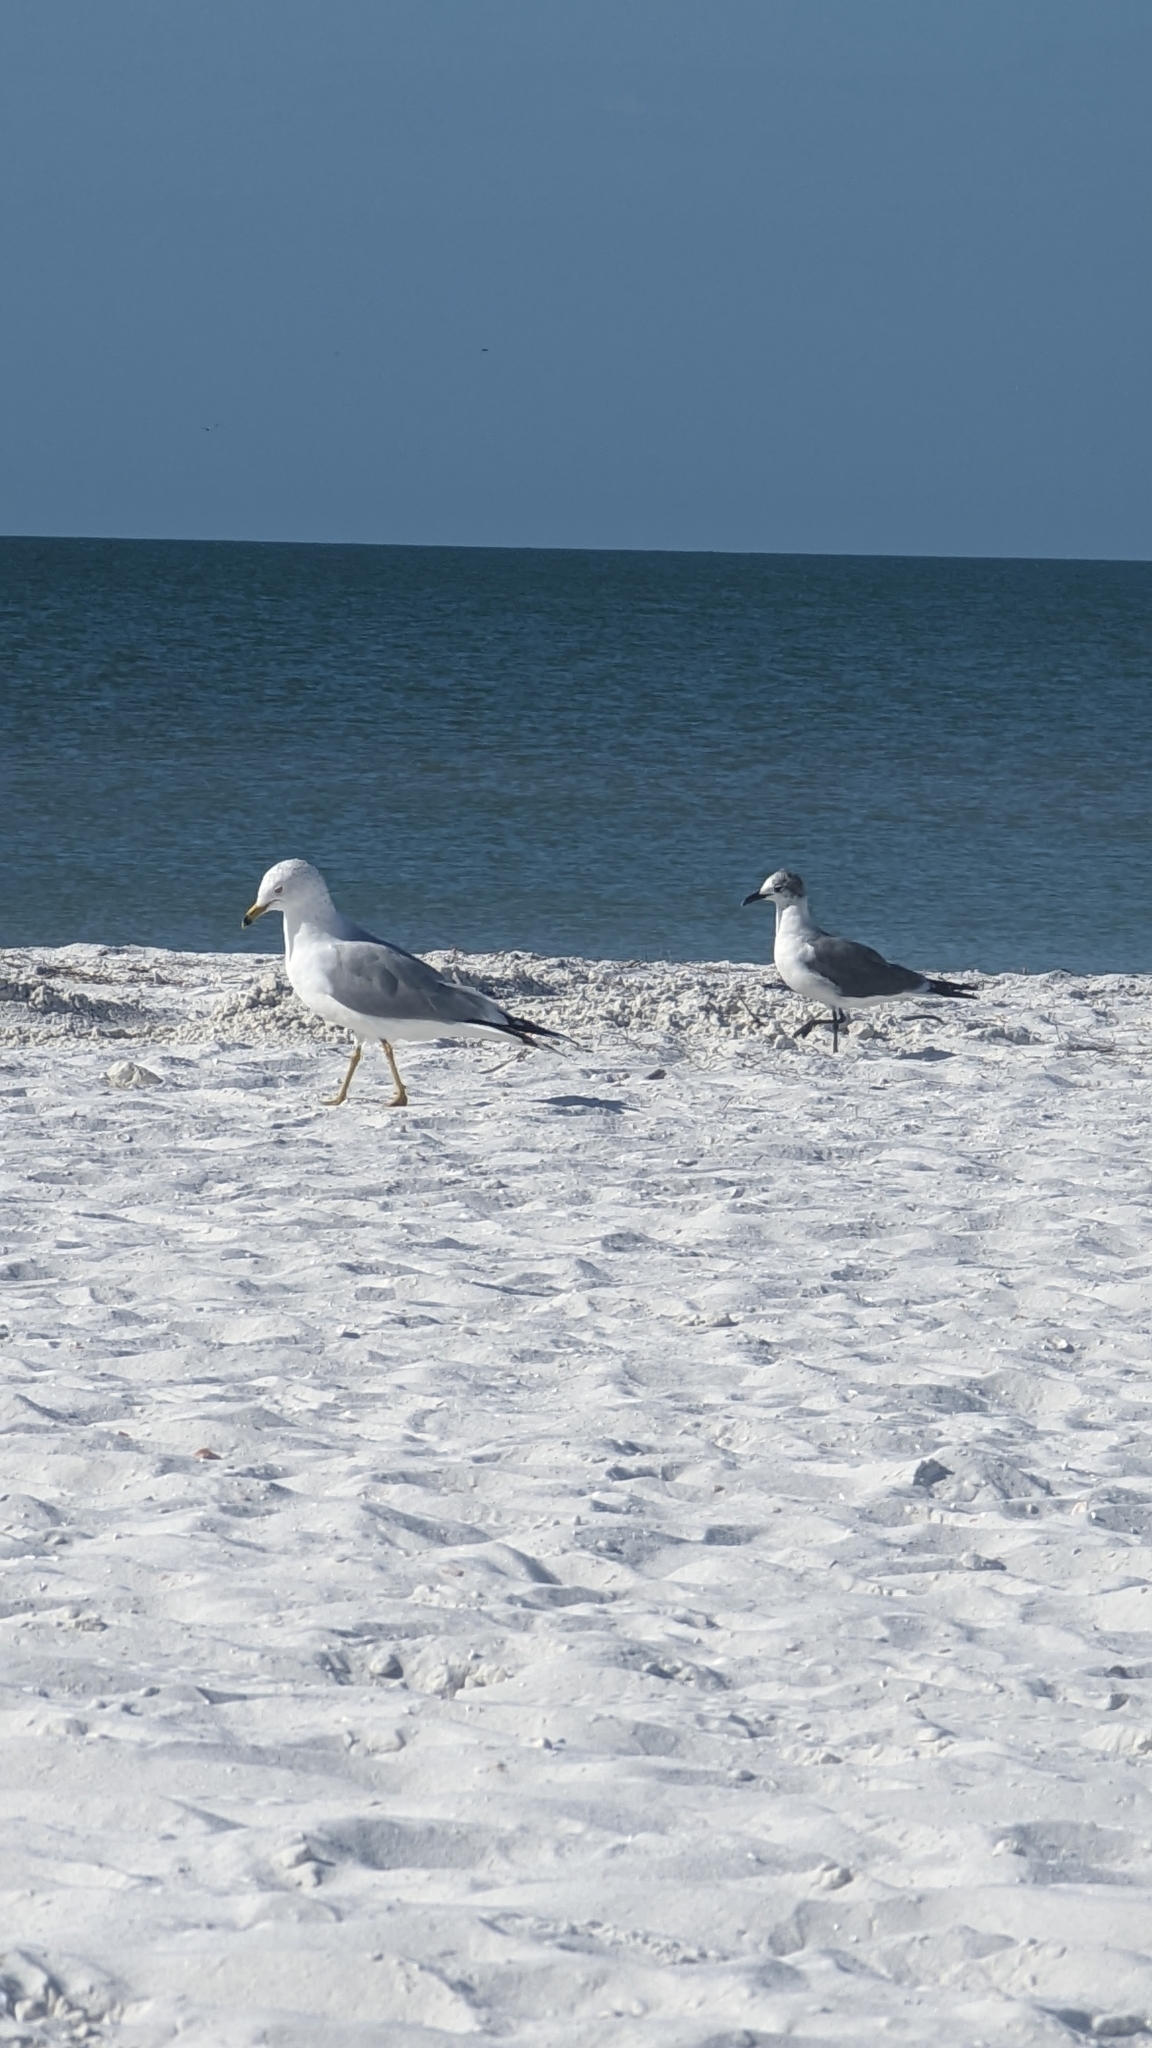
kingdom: Animalia
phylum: Chordata
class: Aves
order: Charadriiformes
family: Laridae
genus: Larus
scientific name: Larus delawarensis
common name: Ring-billed gull
